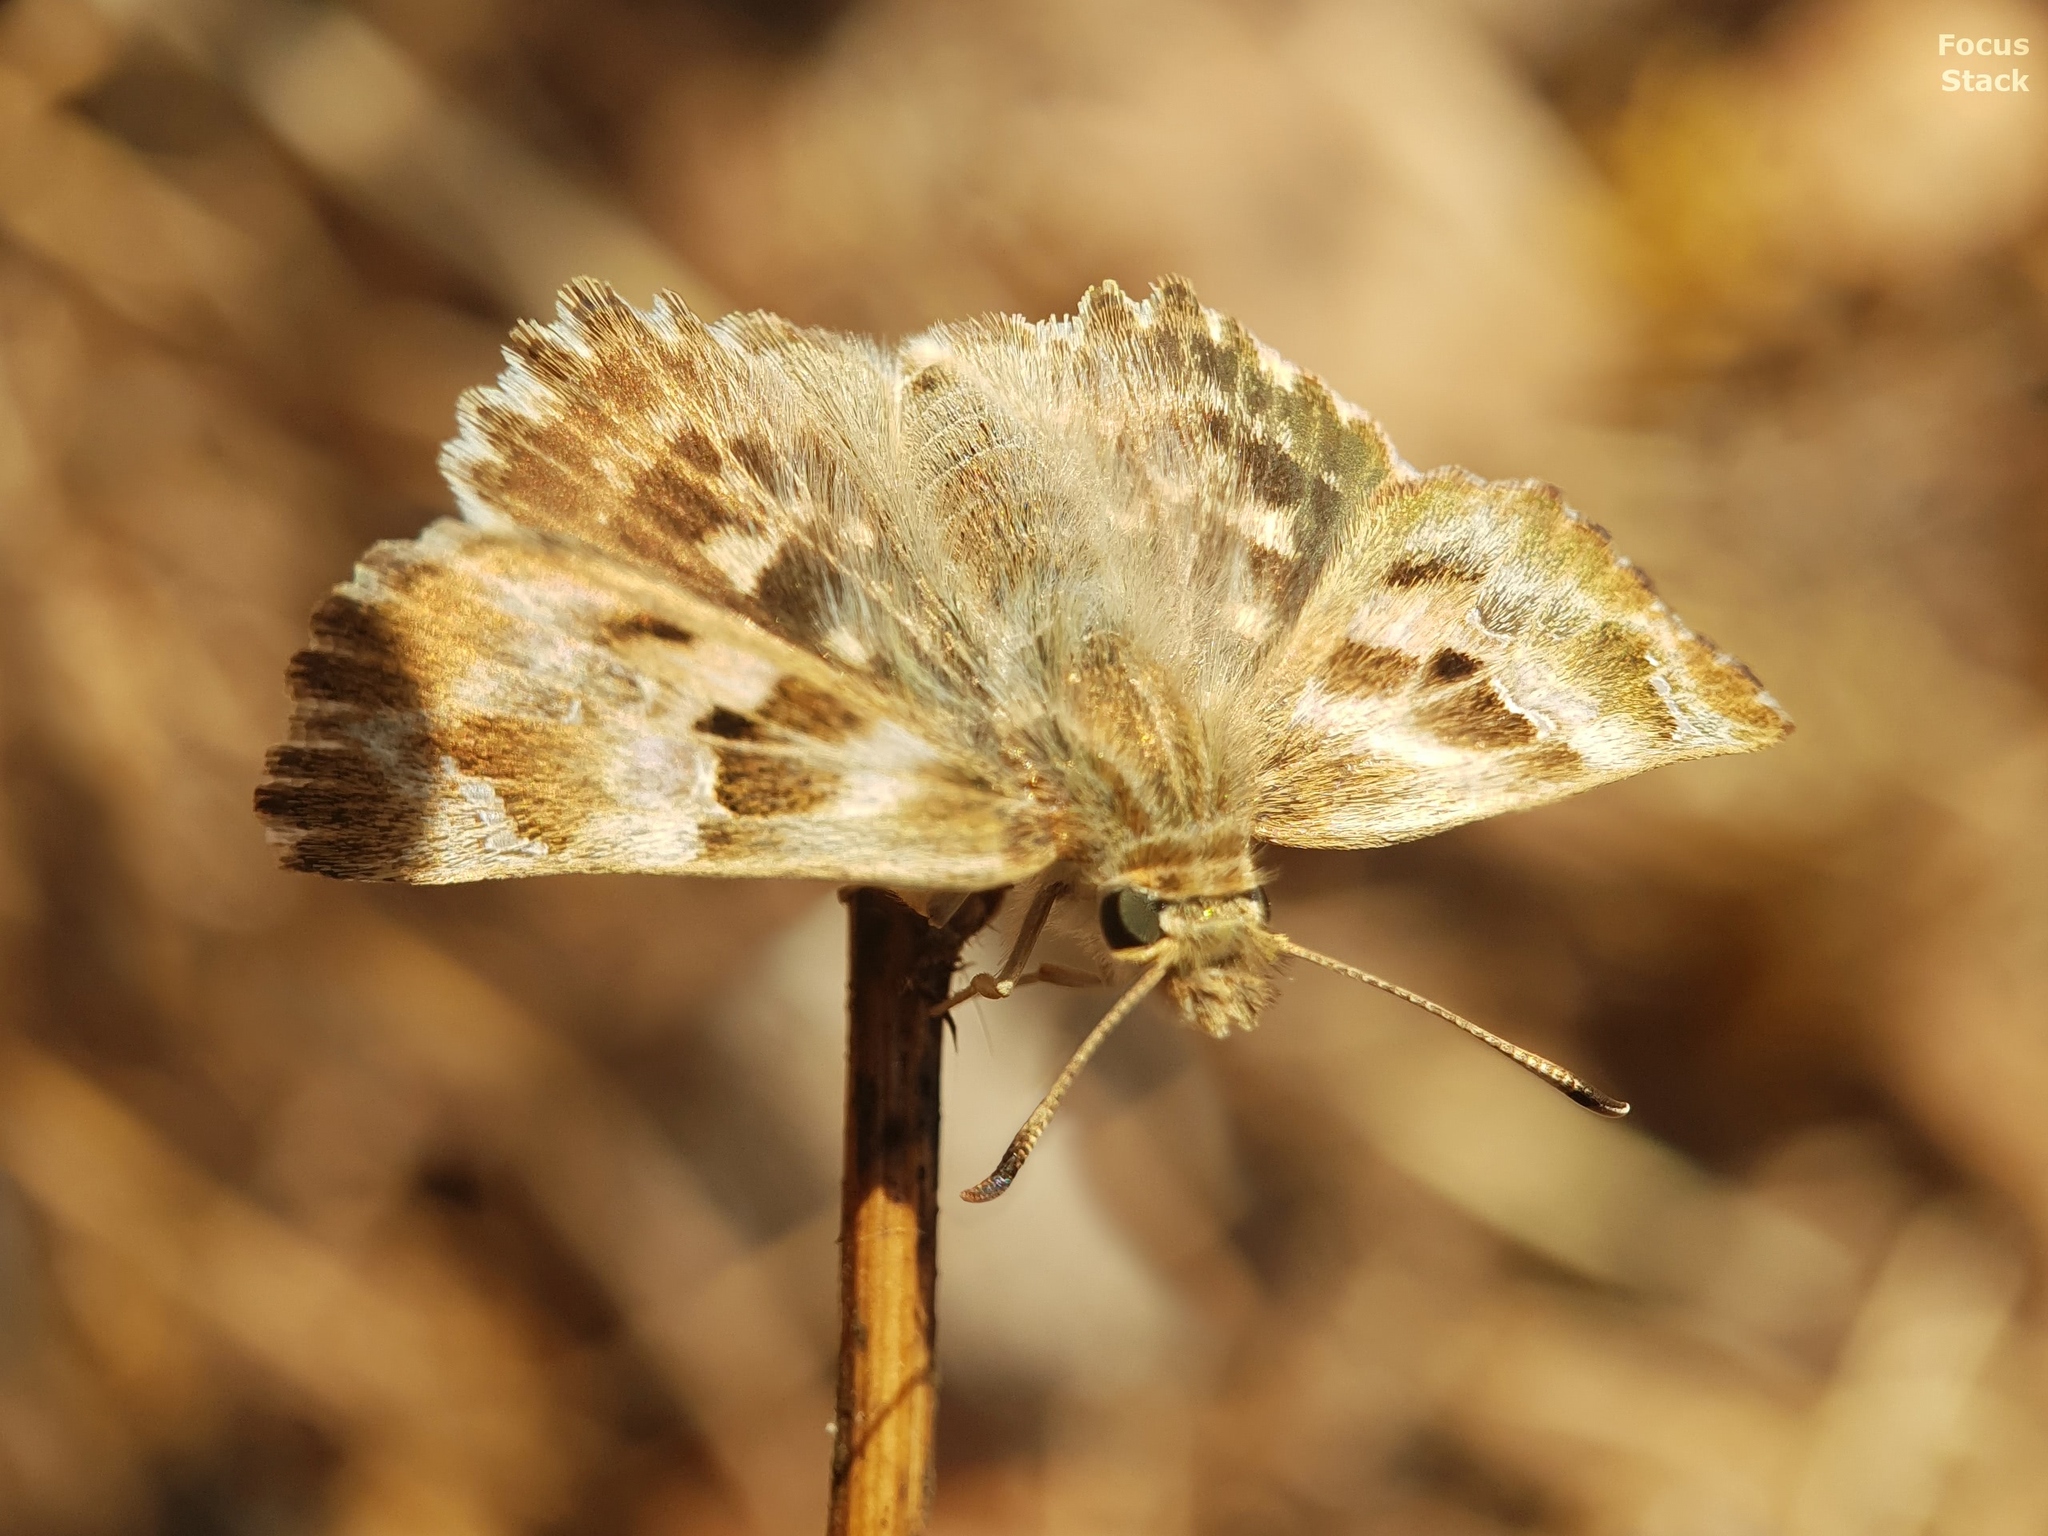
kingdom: Animalia
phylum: Arthropoda
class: Insecta
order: Lepidoptera
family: Hesperiidae
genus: Carcharodus
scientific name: Carcharodus alceae
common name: Mallow skipper
